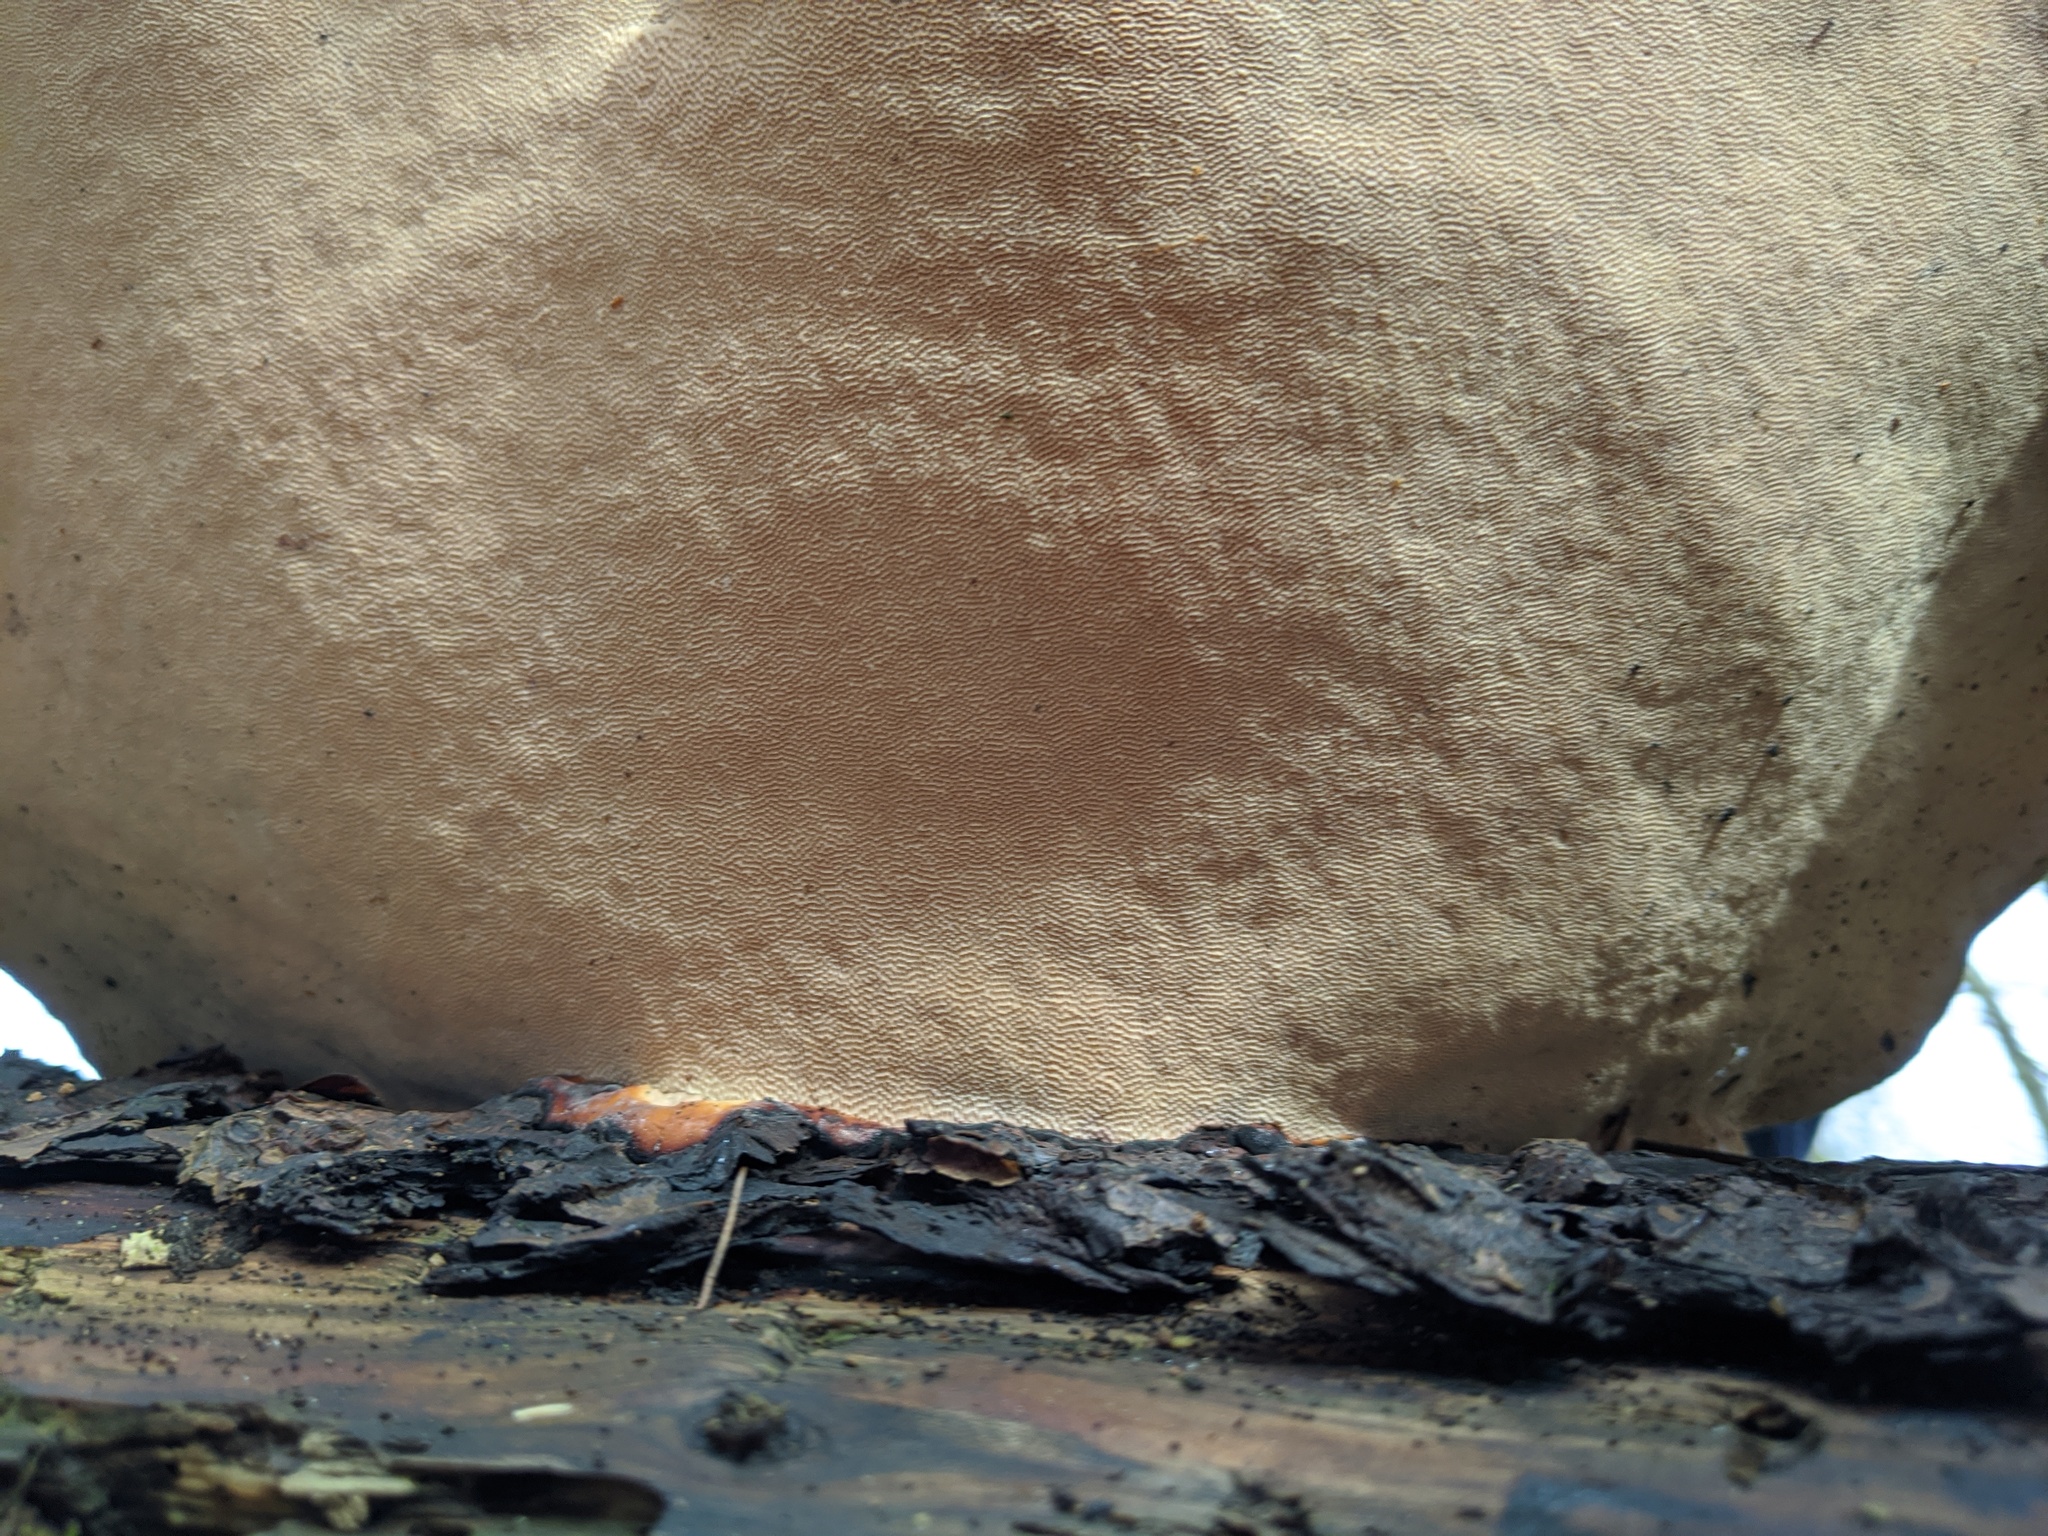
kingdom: Fungi
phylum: Basidiomycota
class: Agaricomycetes
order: Polyporales
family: Fomitopsidaceae
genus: Fomitopsis
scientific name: Fomitopsis pinicola
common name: Red-belted bracket
